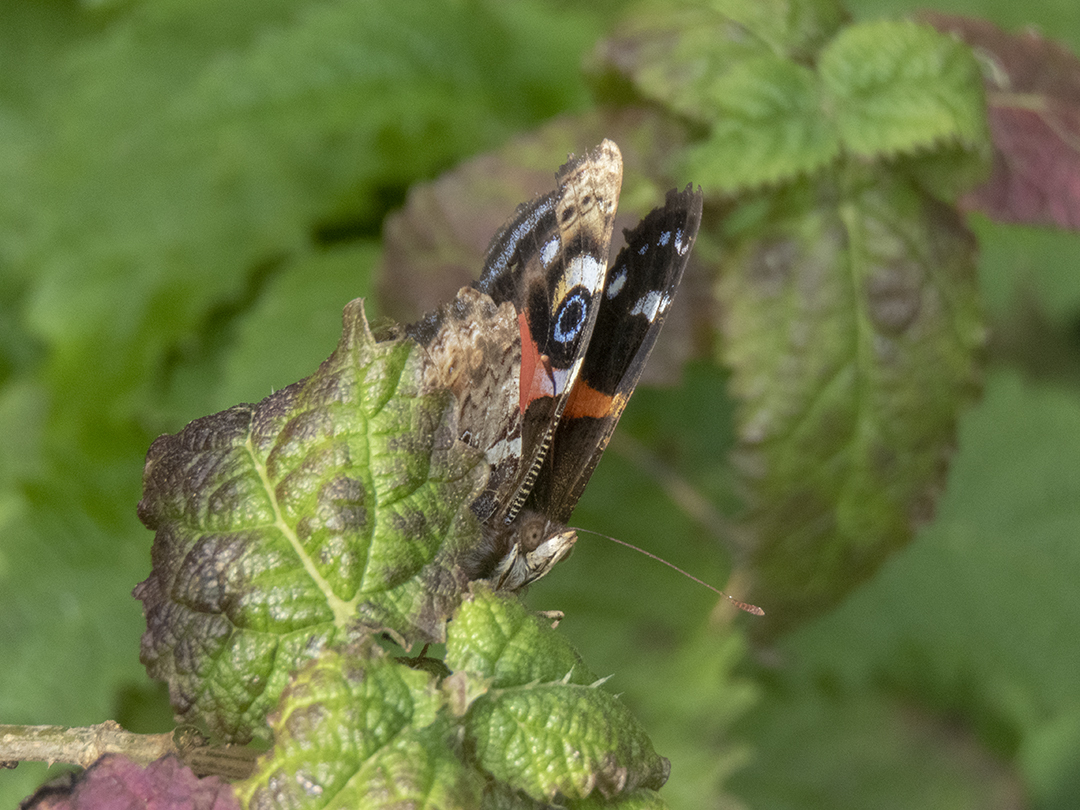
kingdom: Animalia
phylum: Arthropoda
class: Insecta
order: Lepidoptera
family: Nymphalidae
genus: Vanessa
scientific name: Vanessa gonerilla
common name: New zealand red admiral
